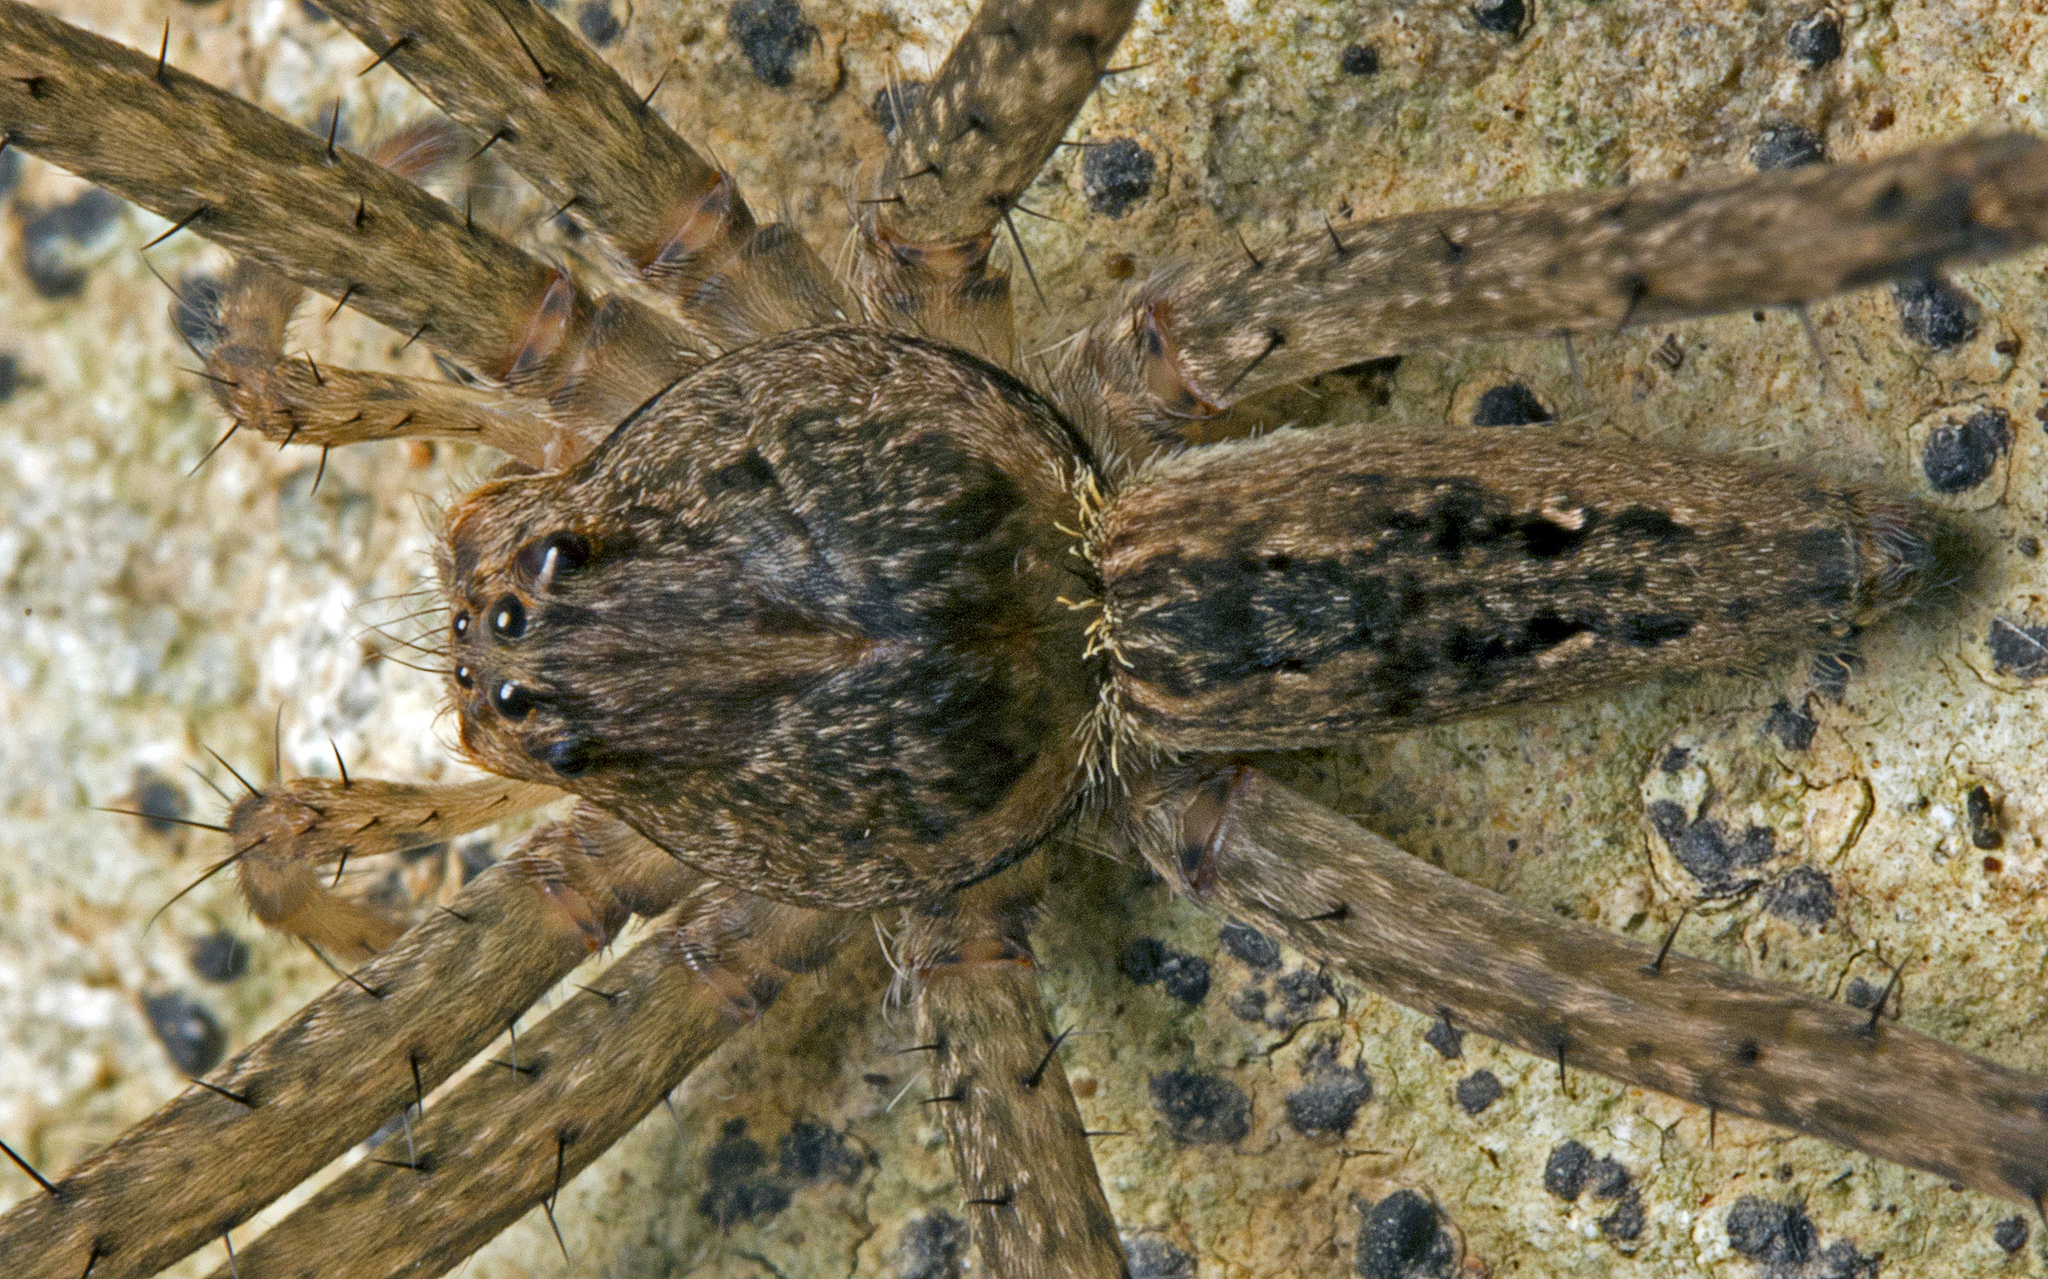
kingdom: Animalia
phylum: Arthropoda
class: Arachnida
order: Araneae
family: Pisauridae
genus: Megadolomedes
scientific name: Megadolomedes trux
